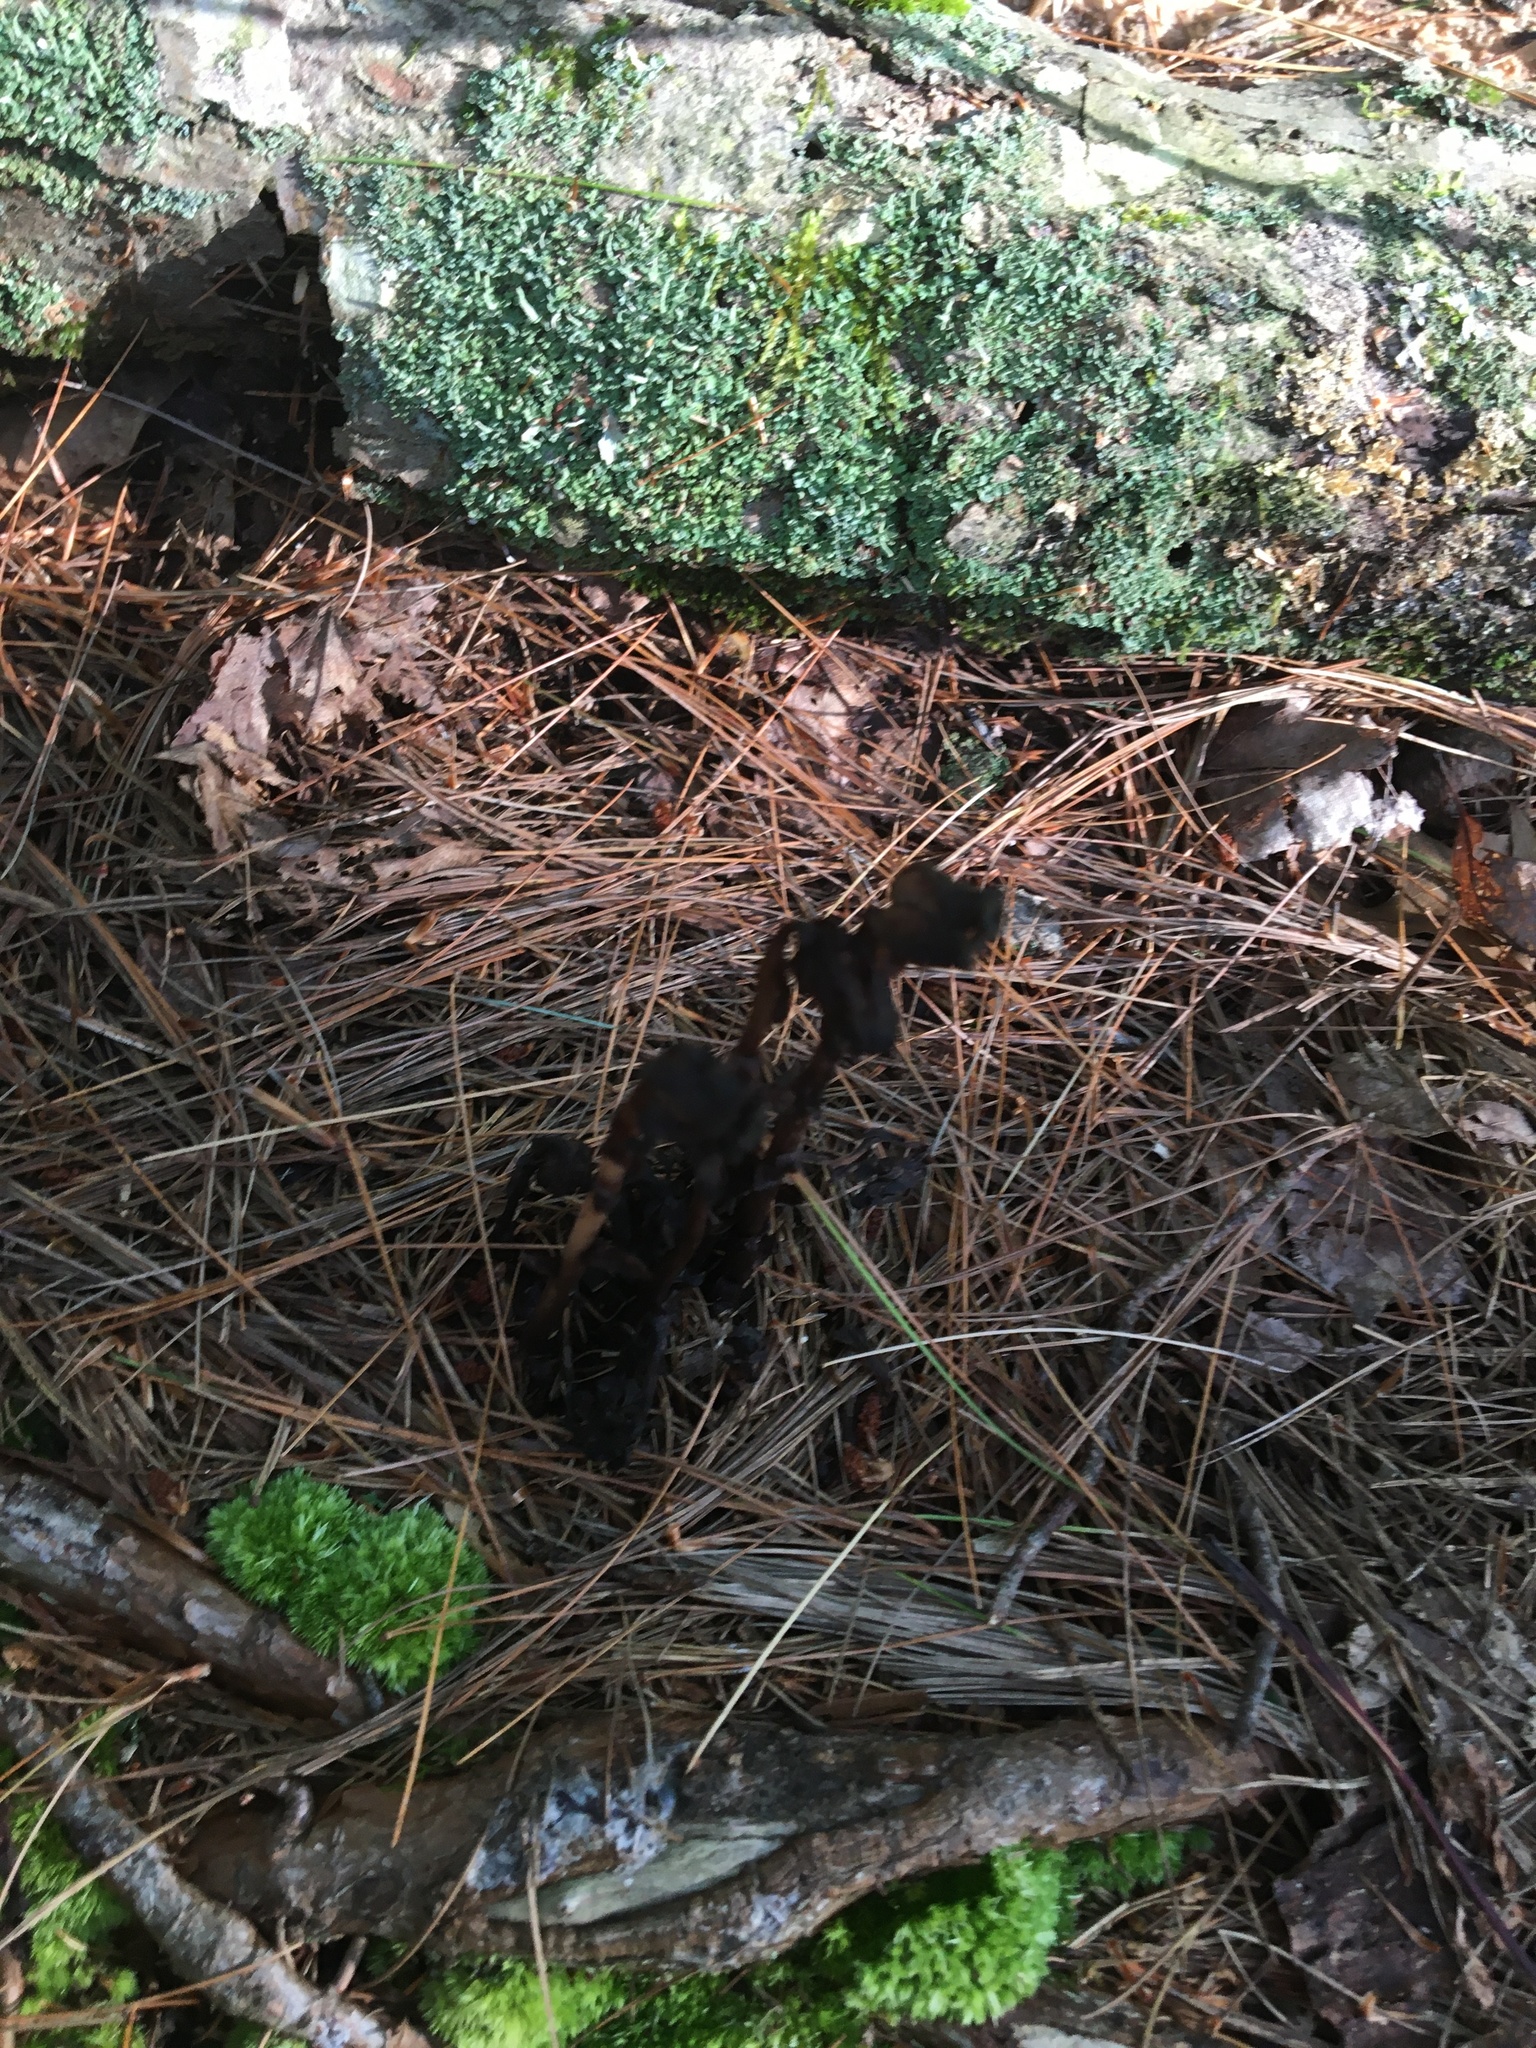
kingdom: Plantae
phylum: Tracheophyta
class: Magnoliopsida
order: Ericales
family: Ericaceae
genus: Monotropa
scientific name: Monotropa uniflora
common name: Convulsion root
